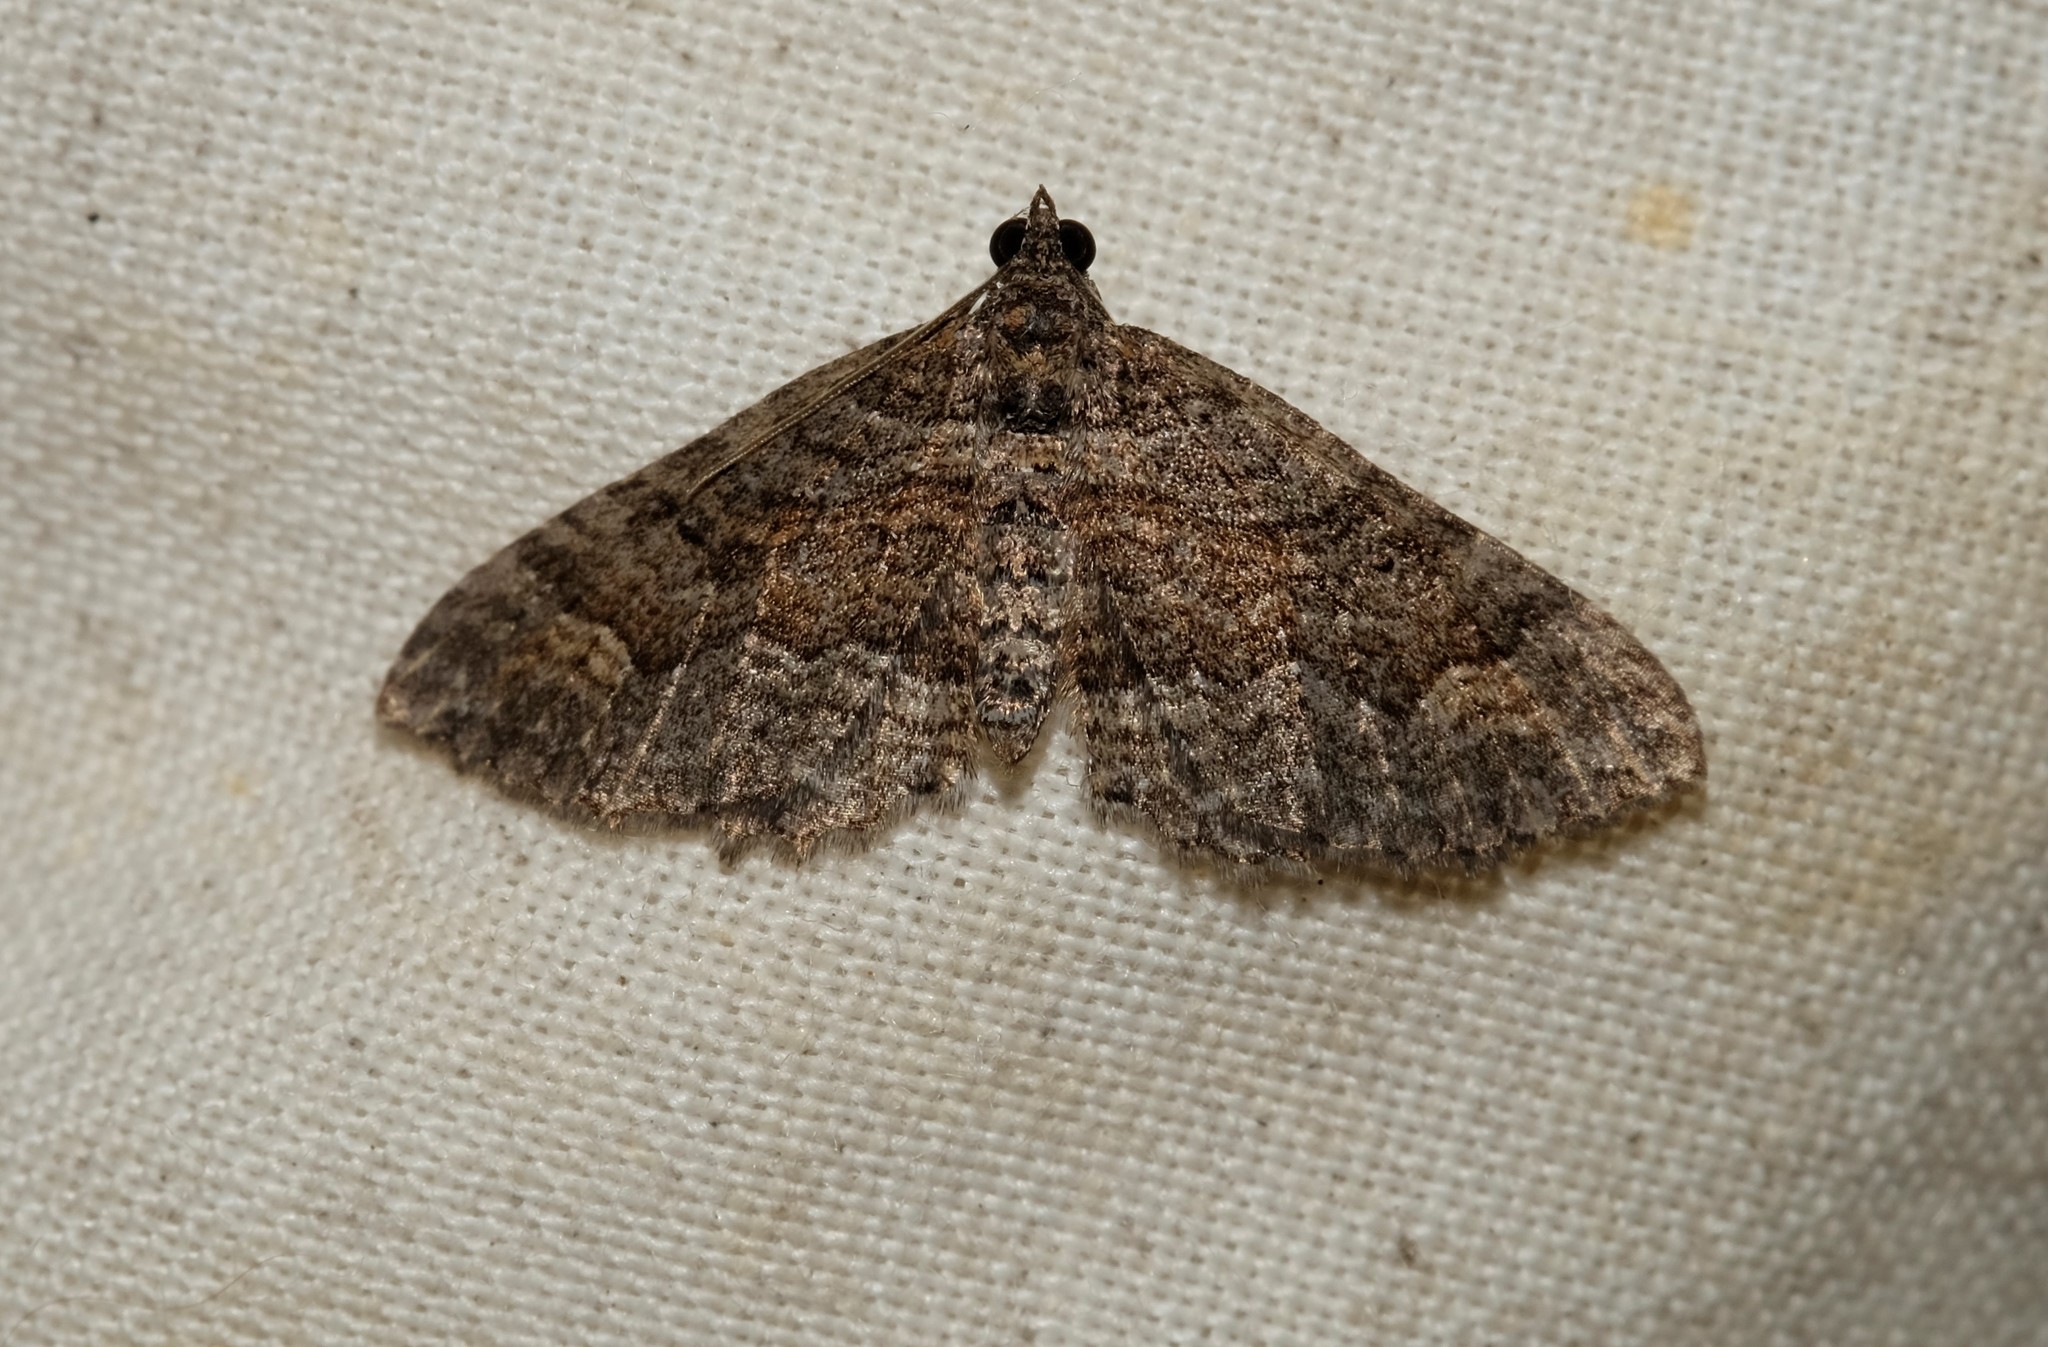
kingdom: Animalia
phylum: Arthropoda
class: Insecta
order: Lepidoptera
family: Geometridae
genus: Eupithecia
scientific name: Eupithecia Eucymatoge scotodes
